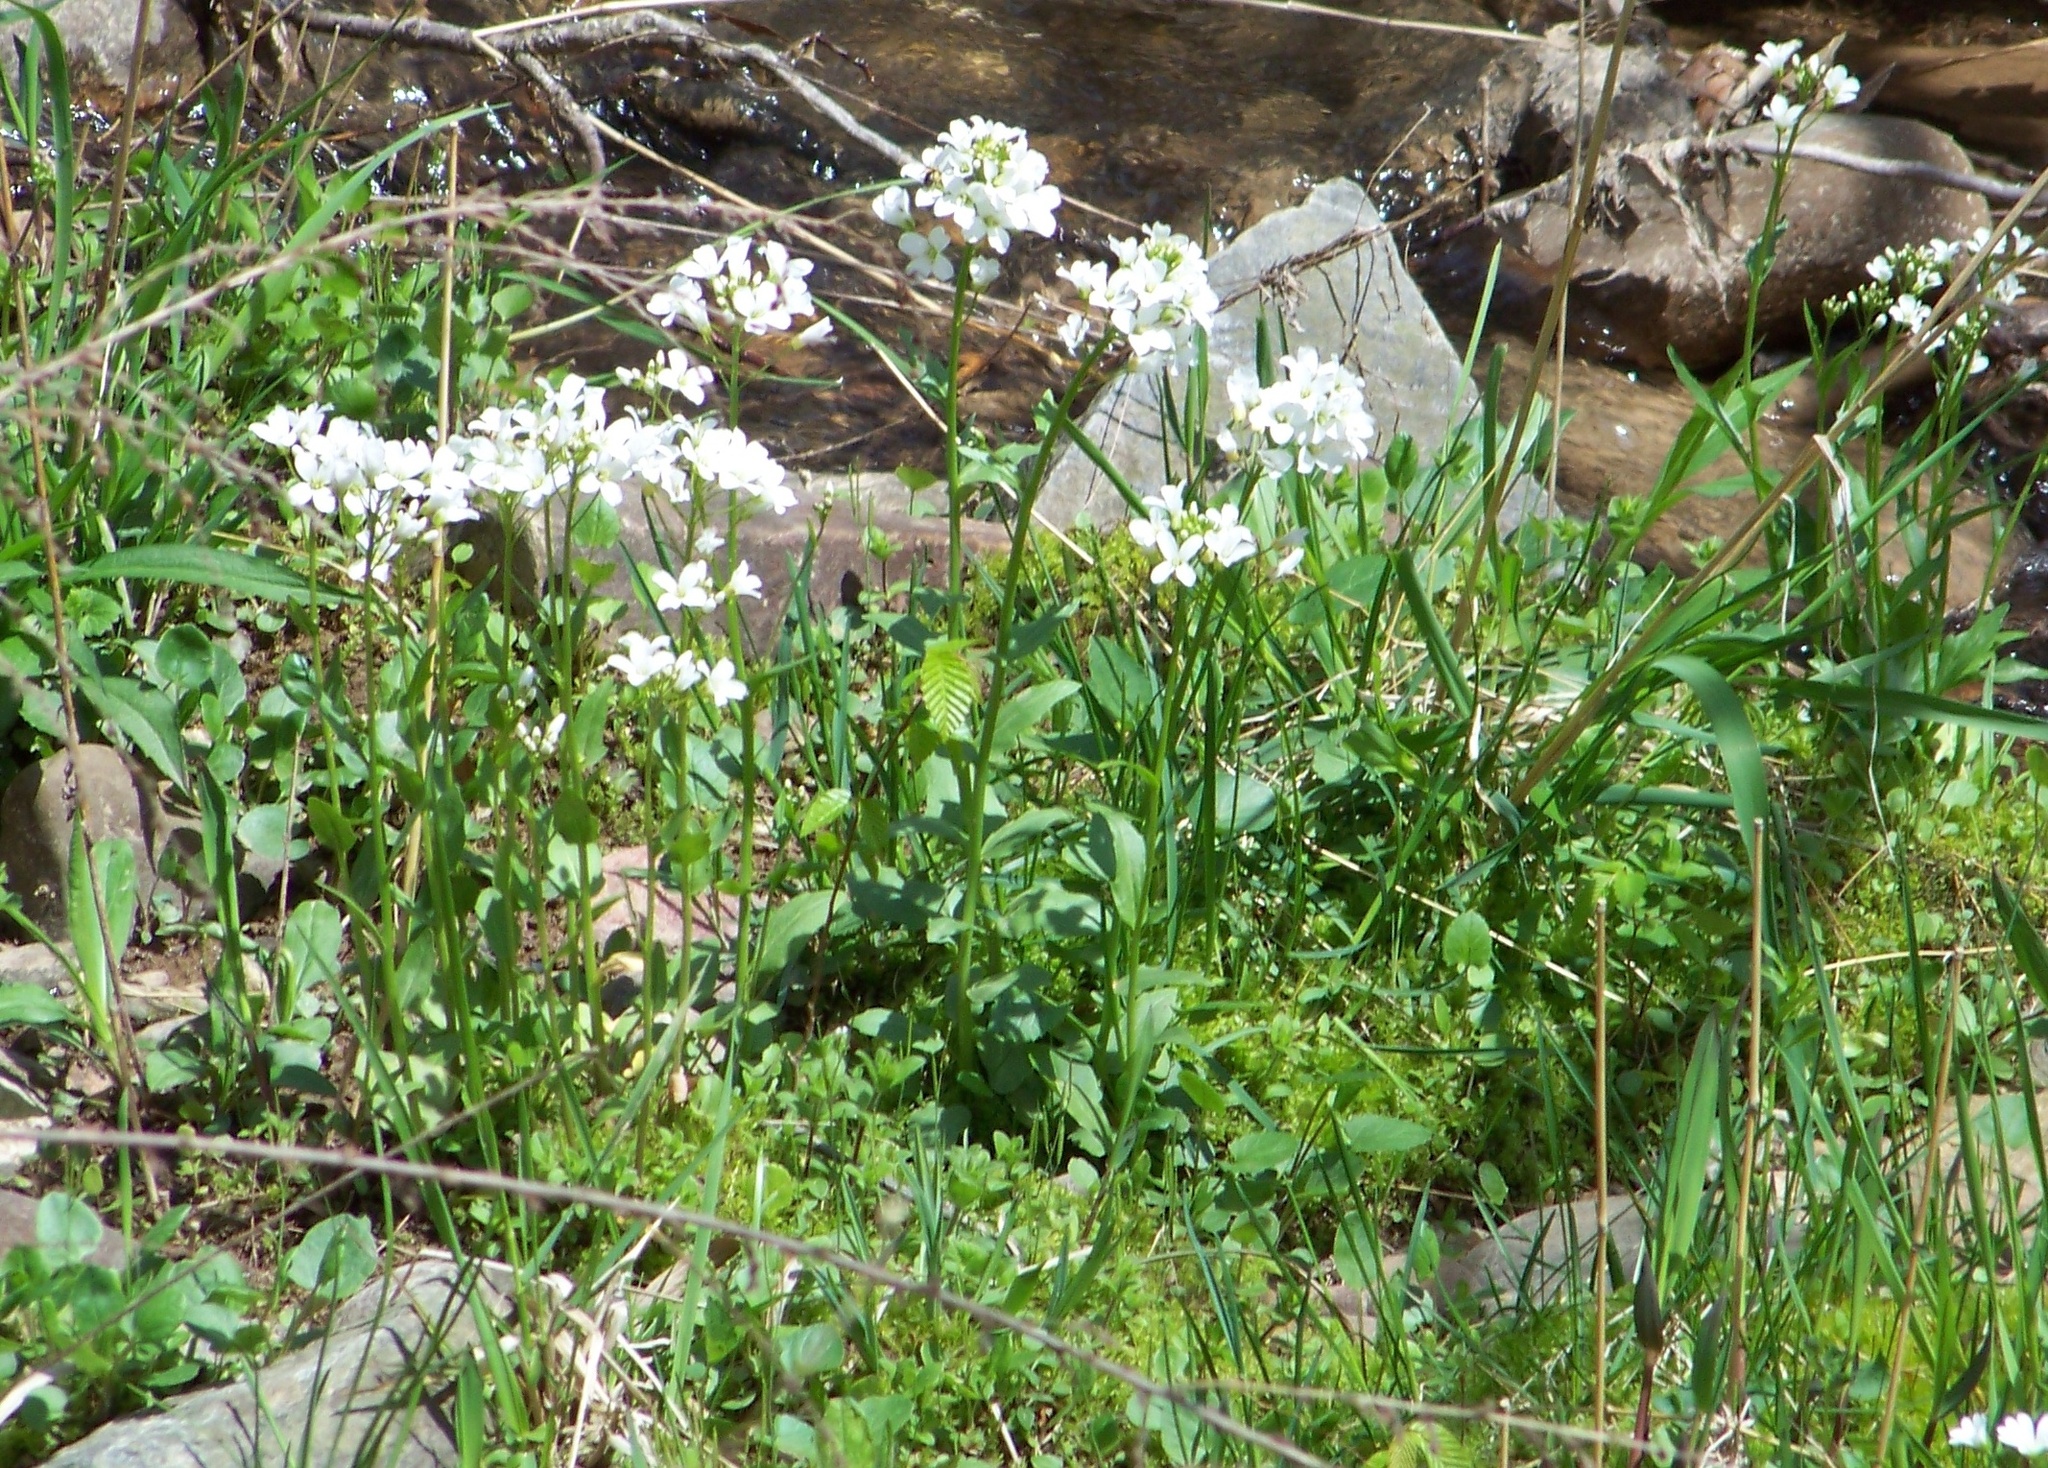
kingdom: Plantae
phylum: Tracheophyta
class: Magnoliopsida
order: Brassicales
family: Brassicaceae
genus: Cardamine
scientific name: Cardamine bulbosa
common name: Spring cress
